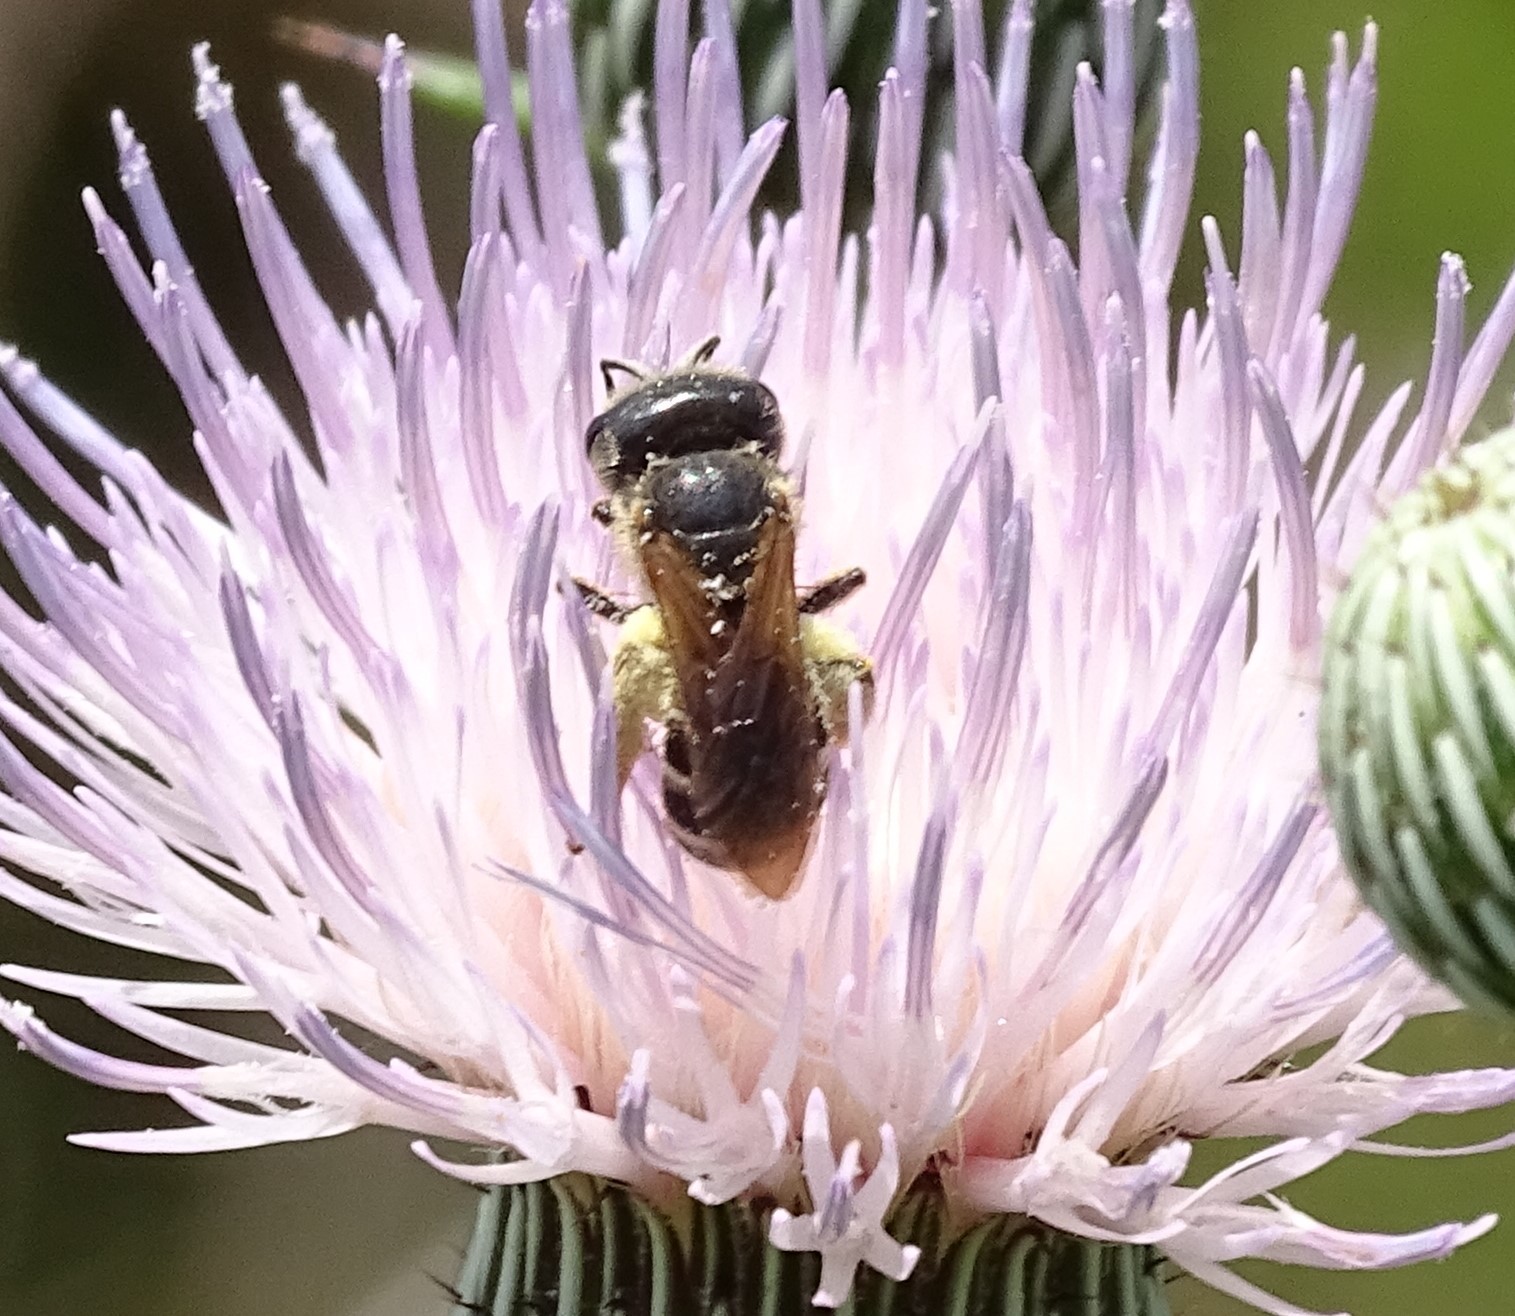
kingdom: Animalia
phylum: Arthropoda
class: Insecta
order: Hymenoptera
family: Halictidae
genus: Halictus
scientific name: Halictus poeyi
